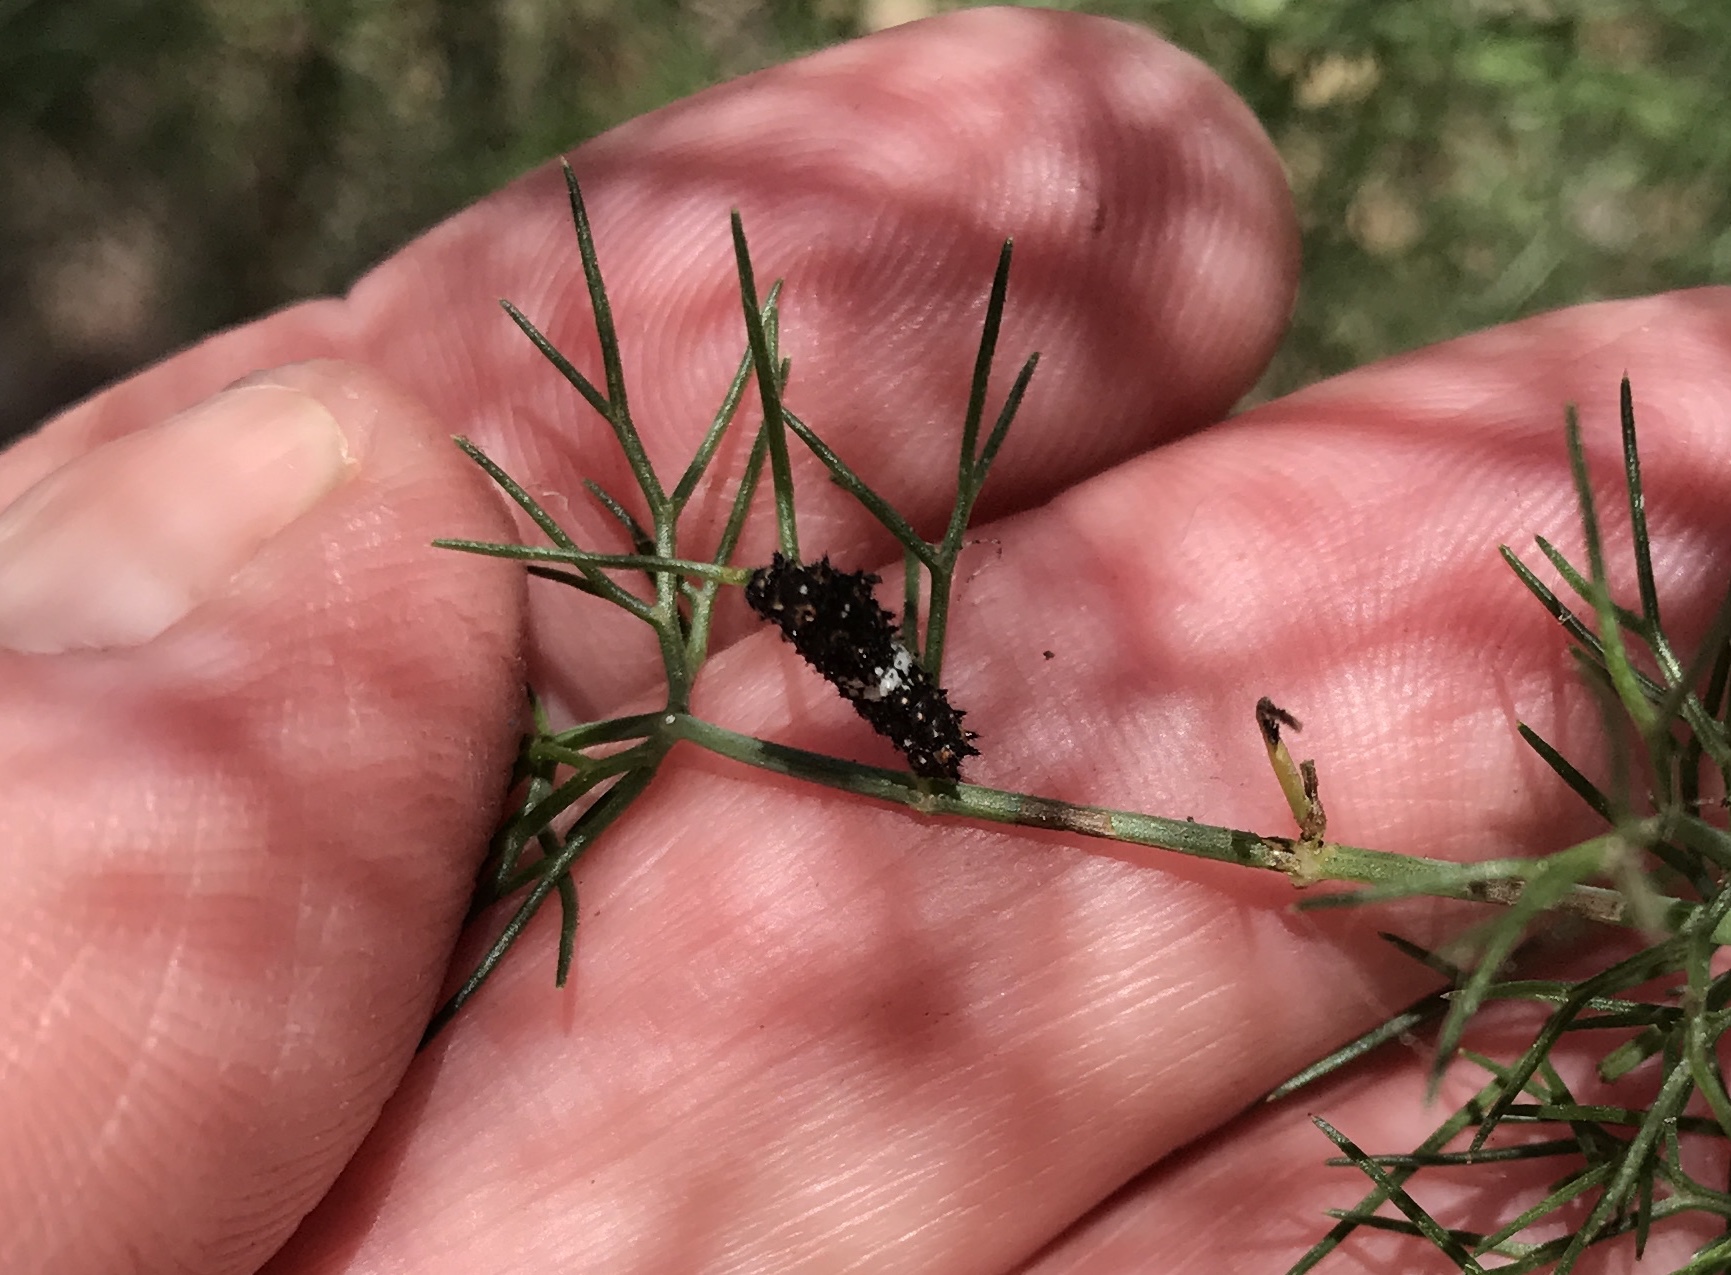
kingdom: Animalia
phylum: Arthropoda
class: Insecta
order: Lepidoptera
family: Papilionidae
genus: Papilio
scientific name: Papilio zelicaon
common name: Anise swallowtail
